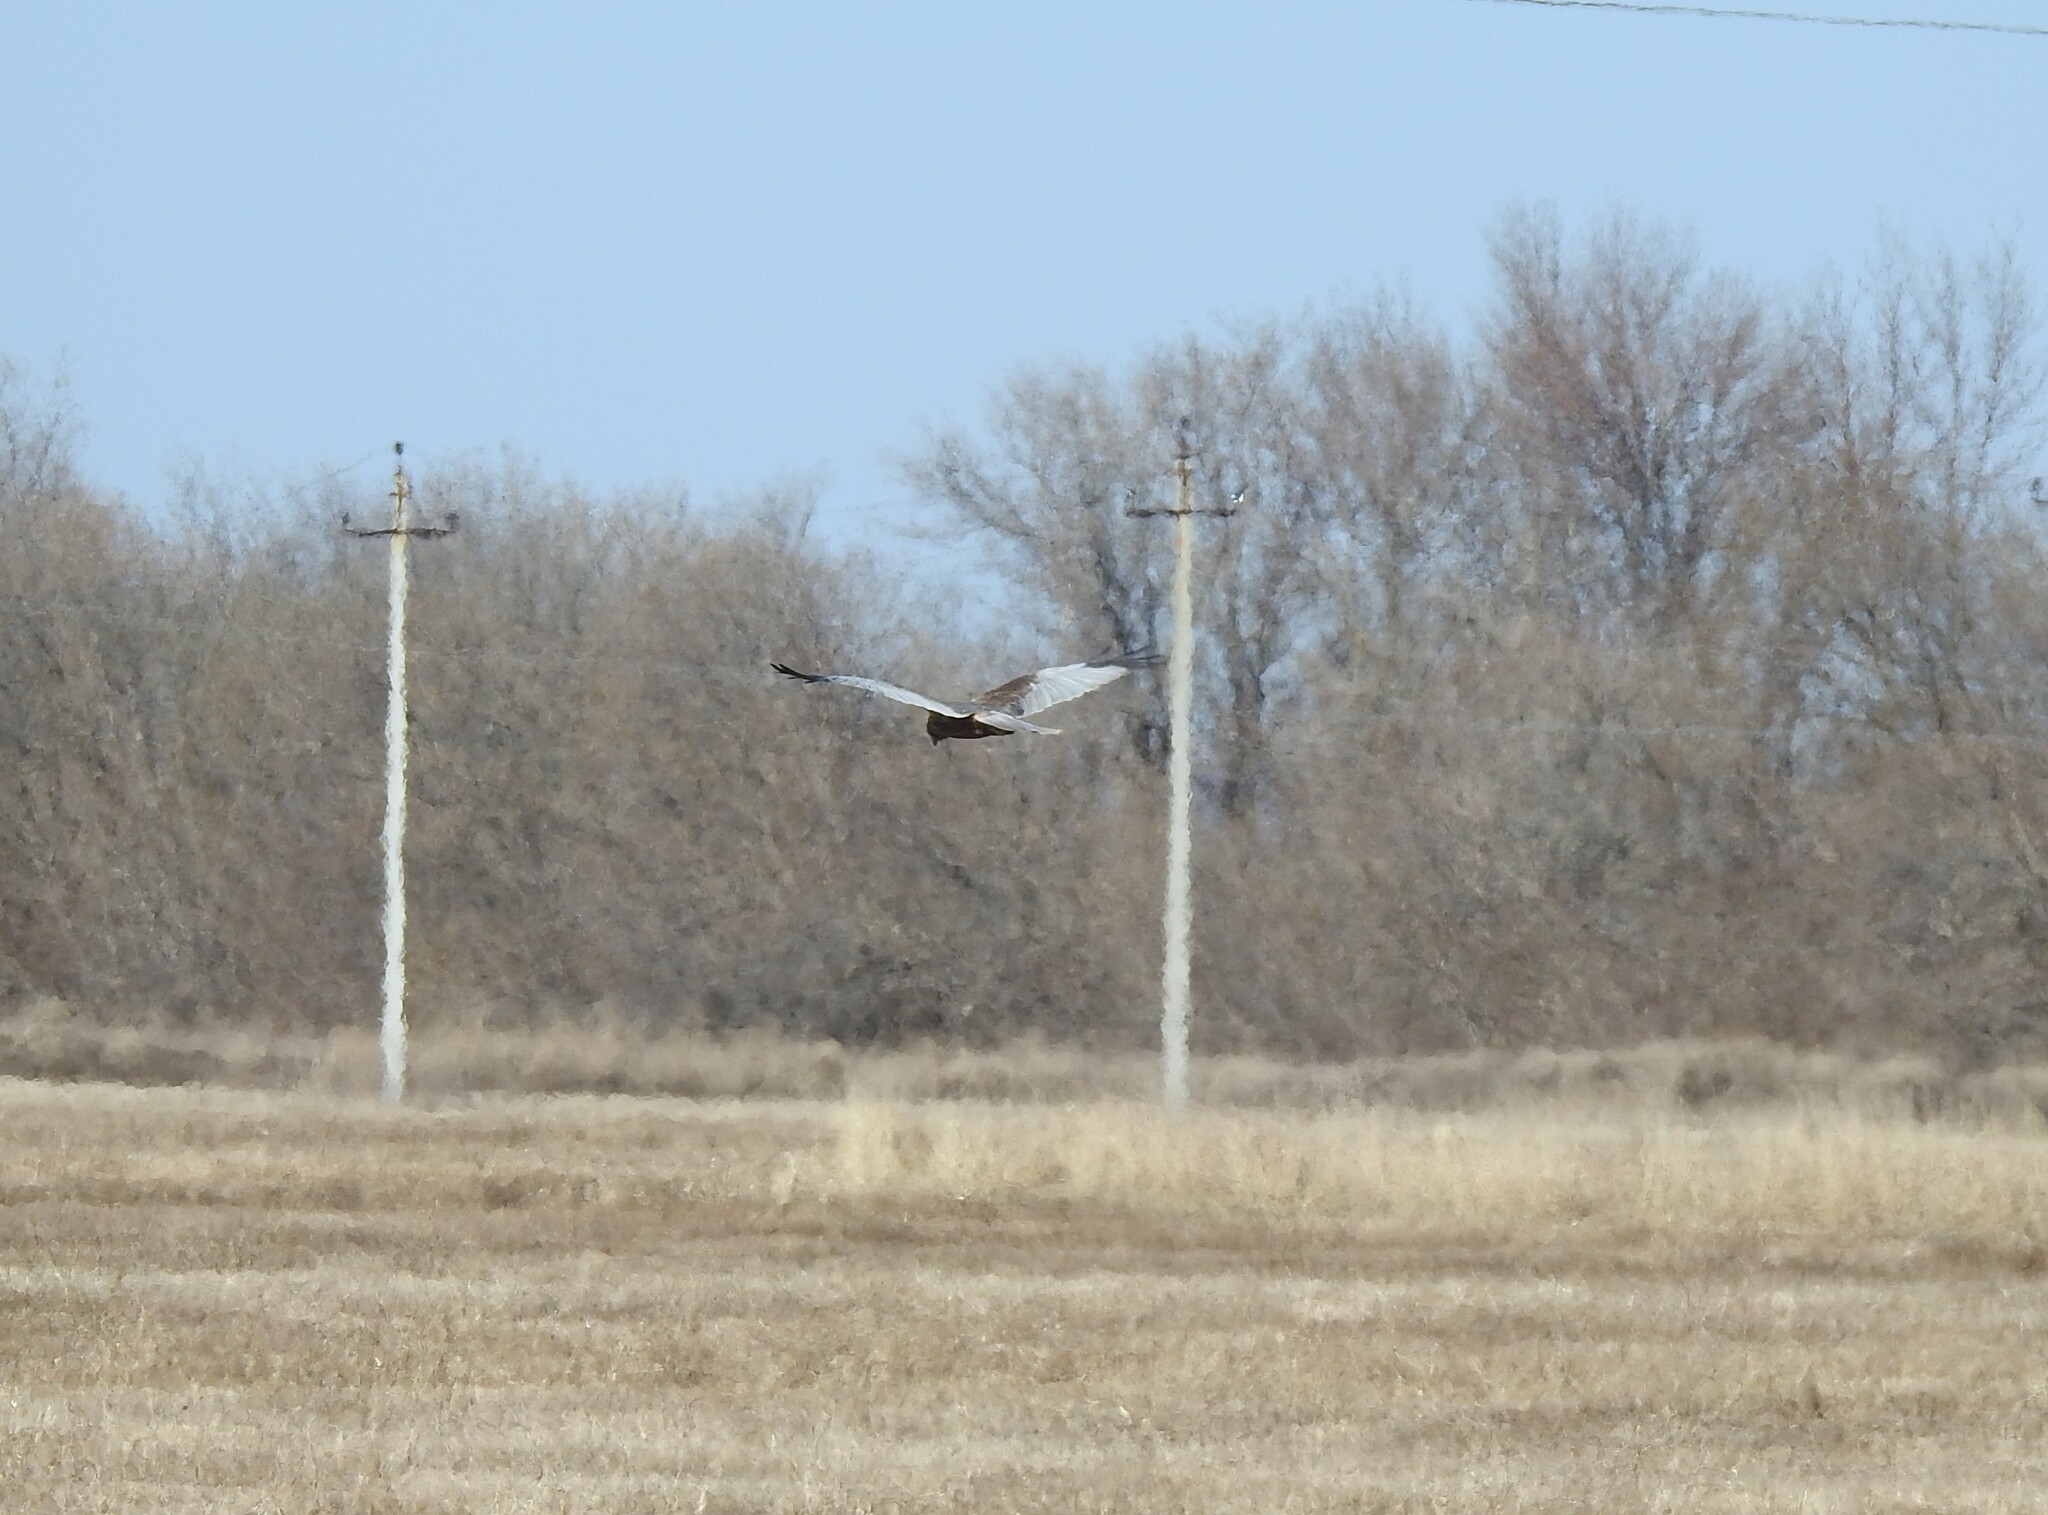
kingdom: Animalia
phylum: Chordata
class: Aves
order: Accipitriformes
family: Accipitridae
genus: Circus
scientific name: Circus aeruginosus
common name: Western marsh harrier
